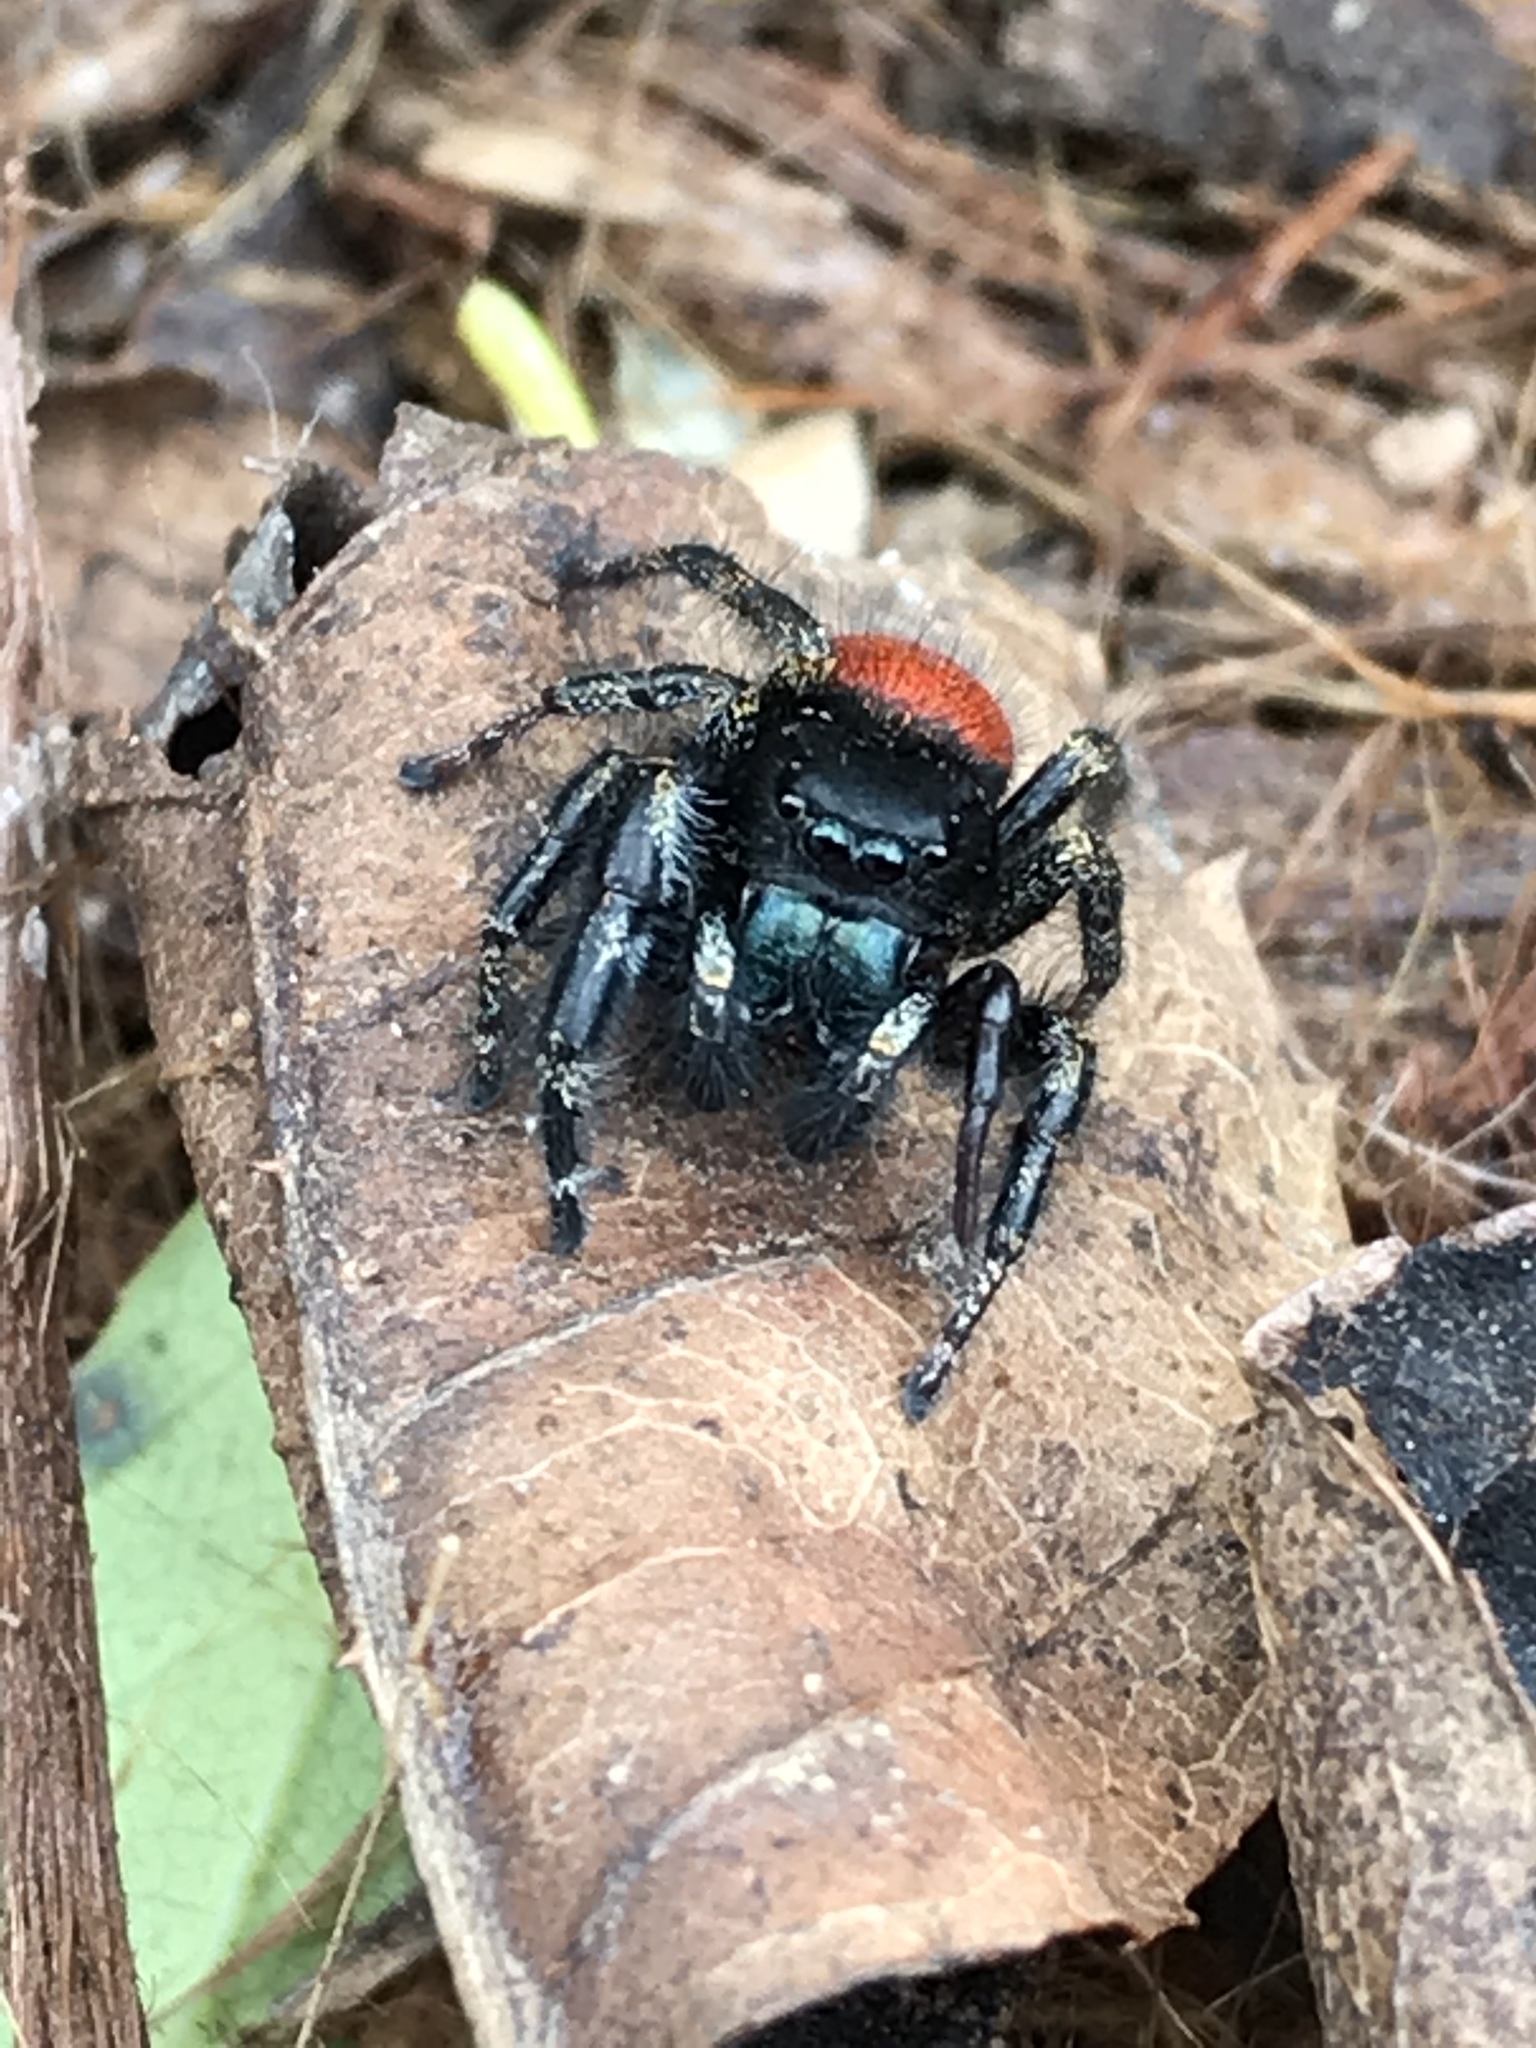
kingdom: Animalia
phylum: Arthropoda
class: Arachnida
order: Araneae
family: Salticidae
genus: Phidippus
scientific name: Phidippus johnsoni
